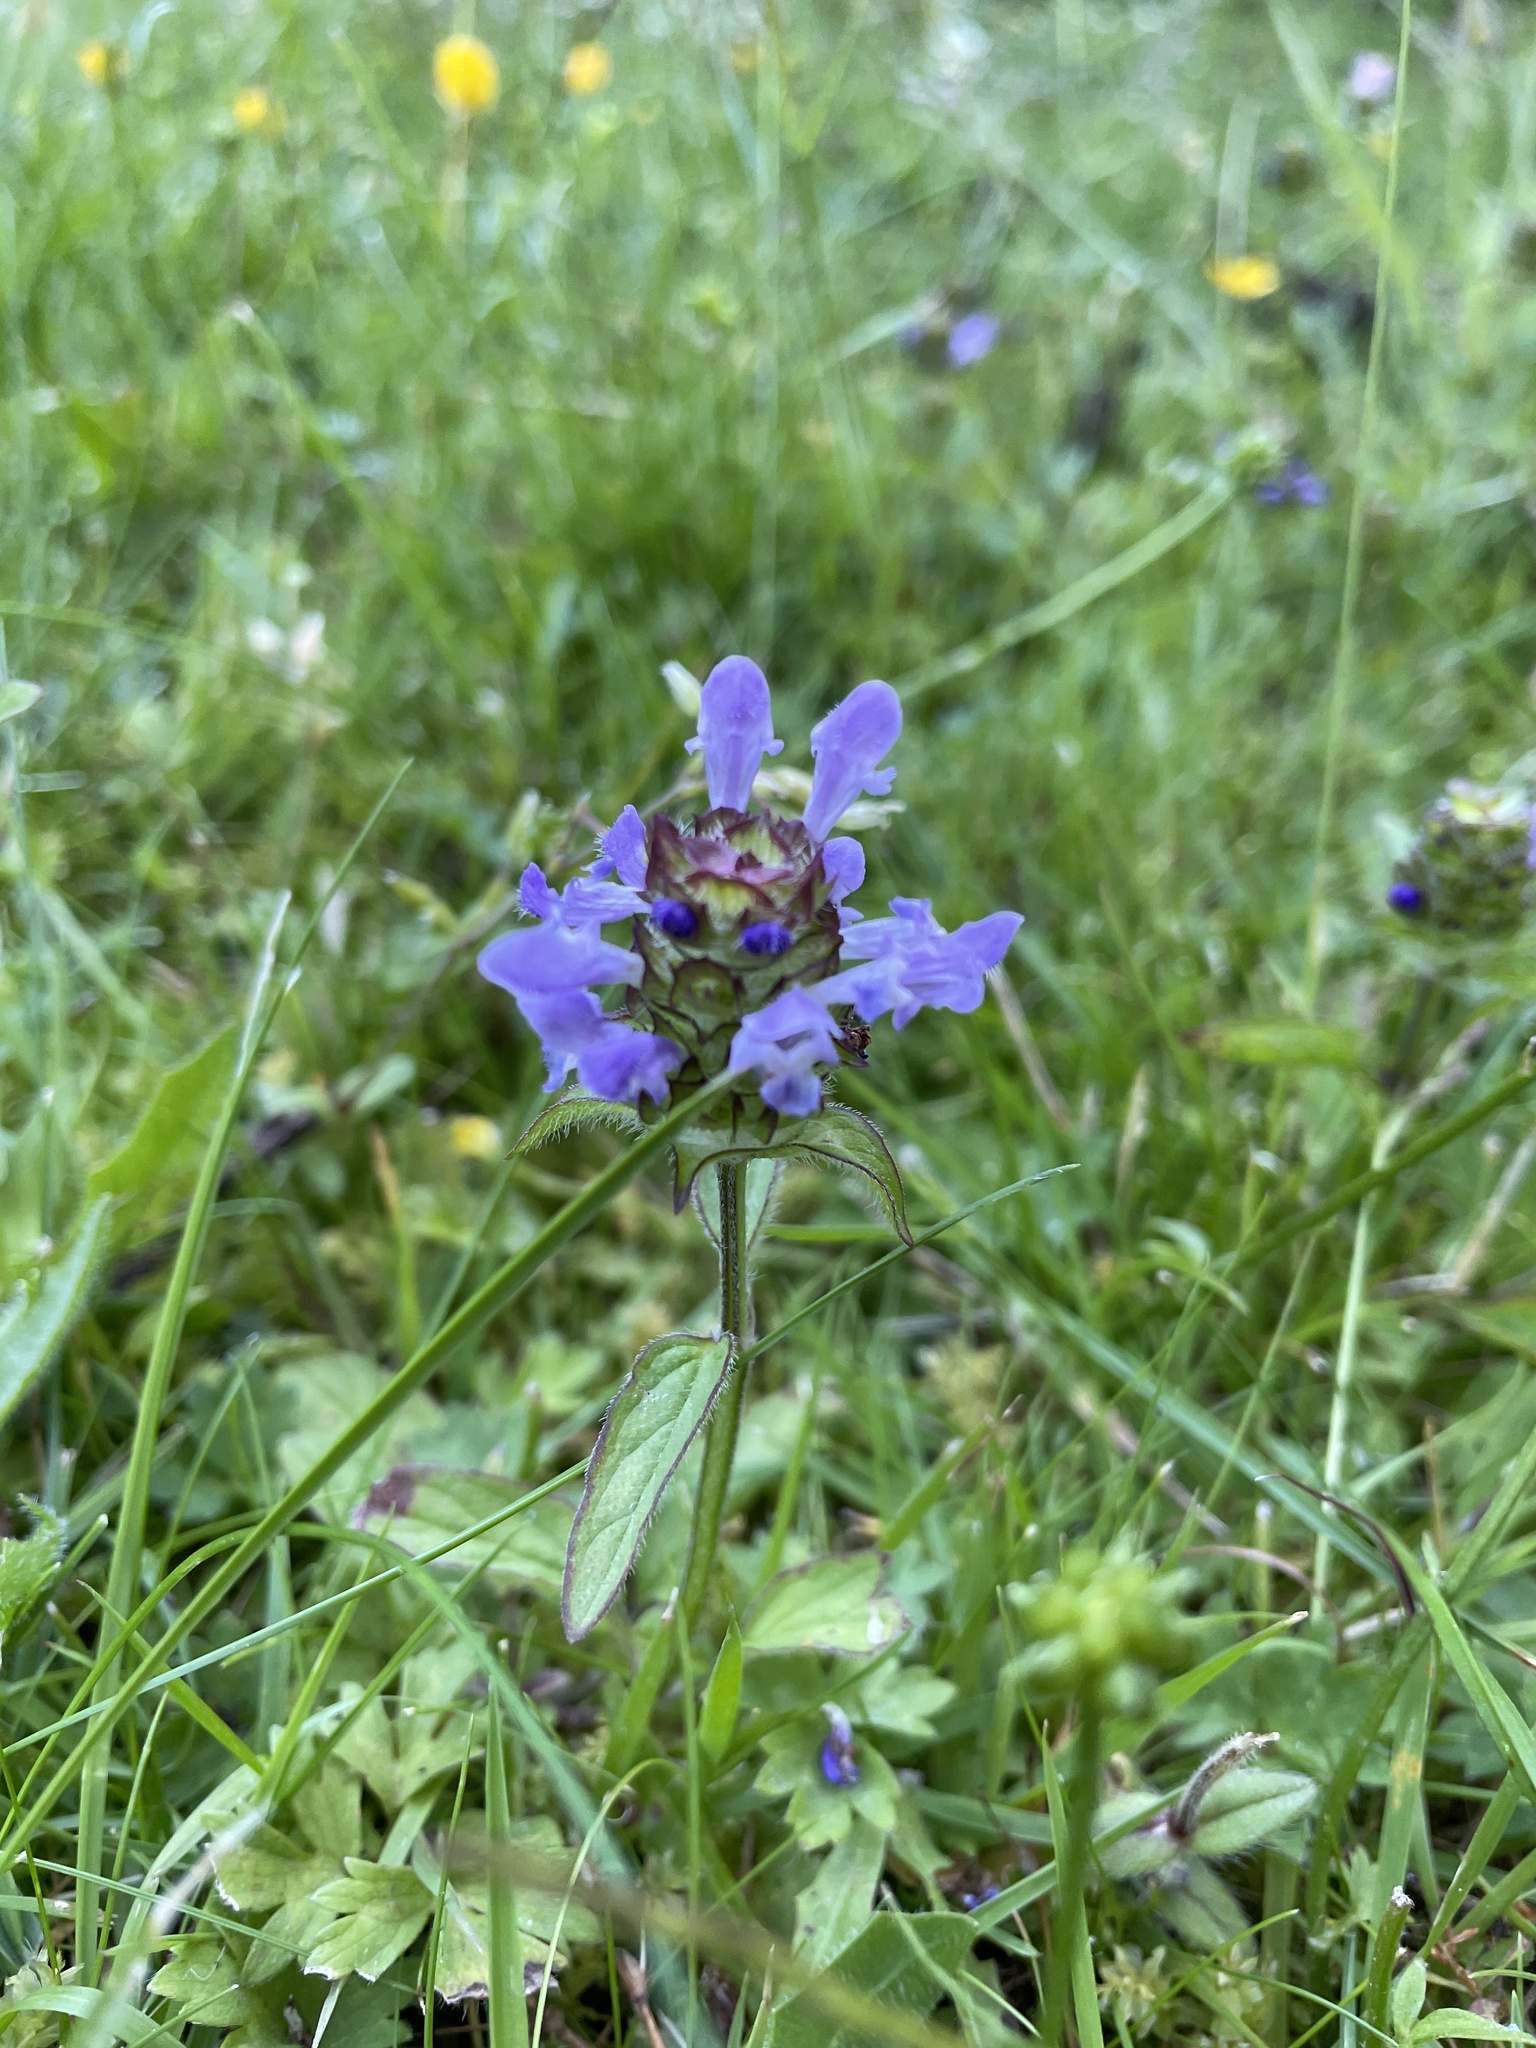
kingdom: Plantae
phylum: Tracheophyta
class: Magnoliopsida
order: Lamiales
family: Lamiaceae
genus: Prunella
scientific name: Prunella vulgaris
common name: Heal-all
